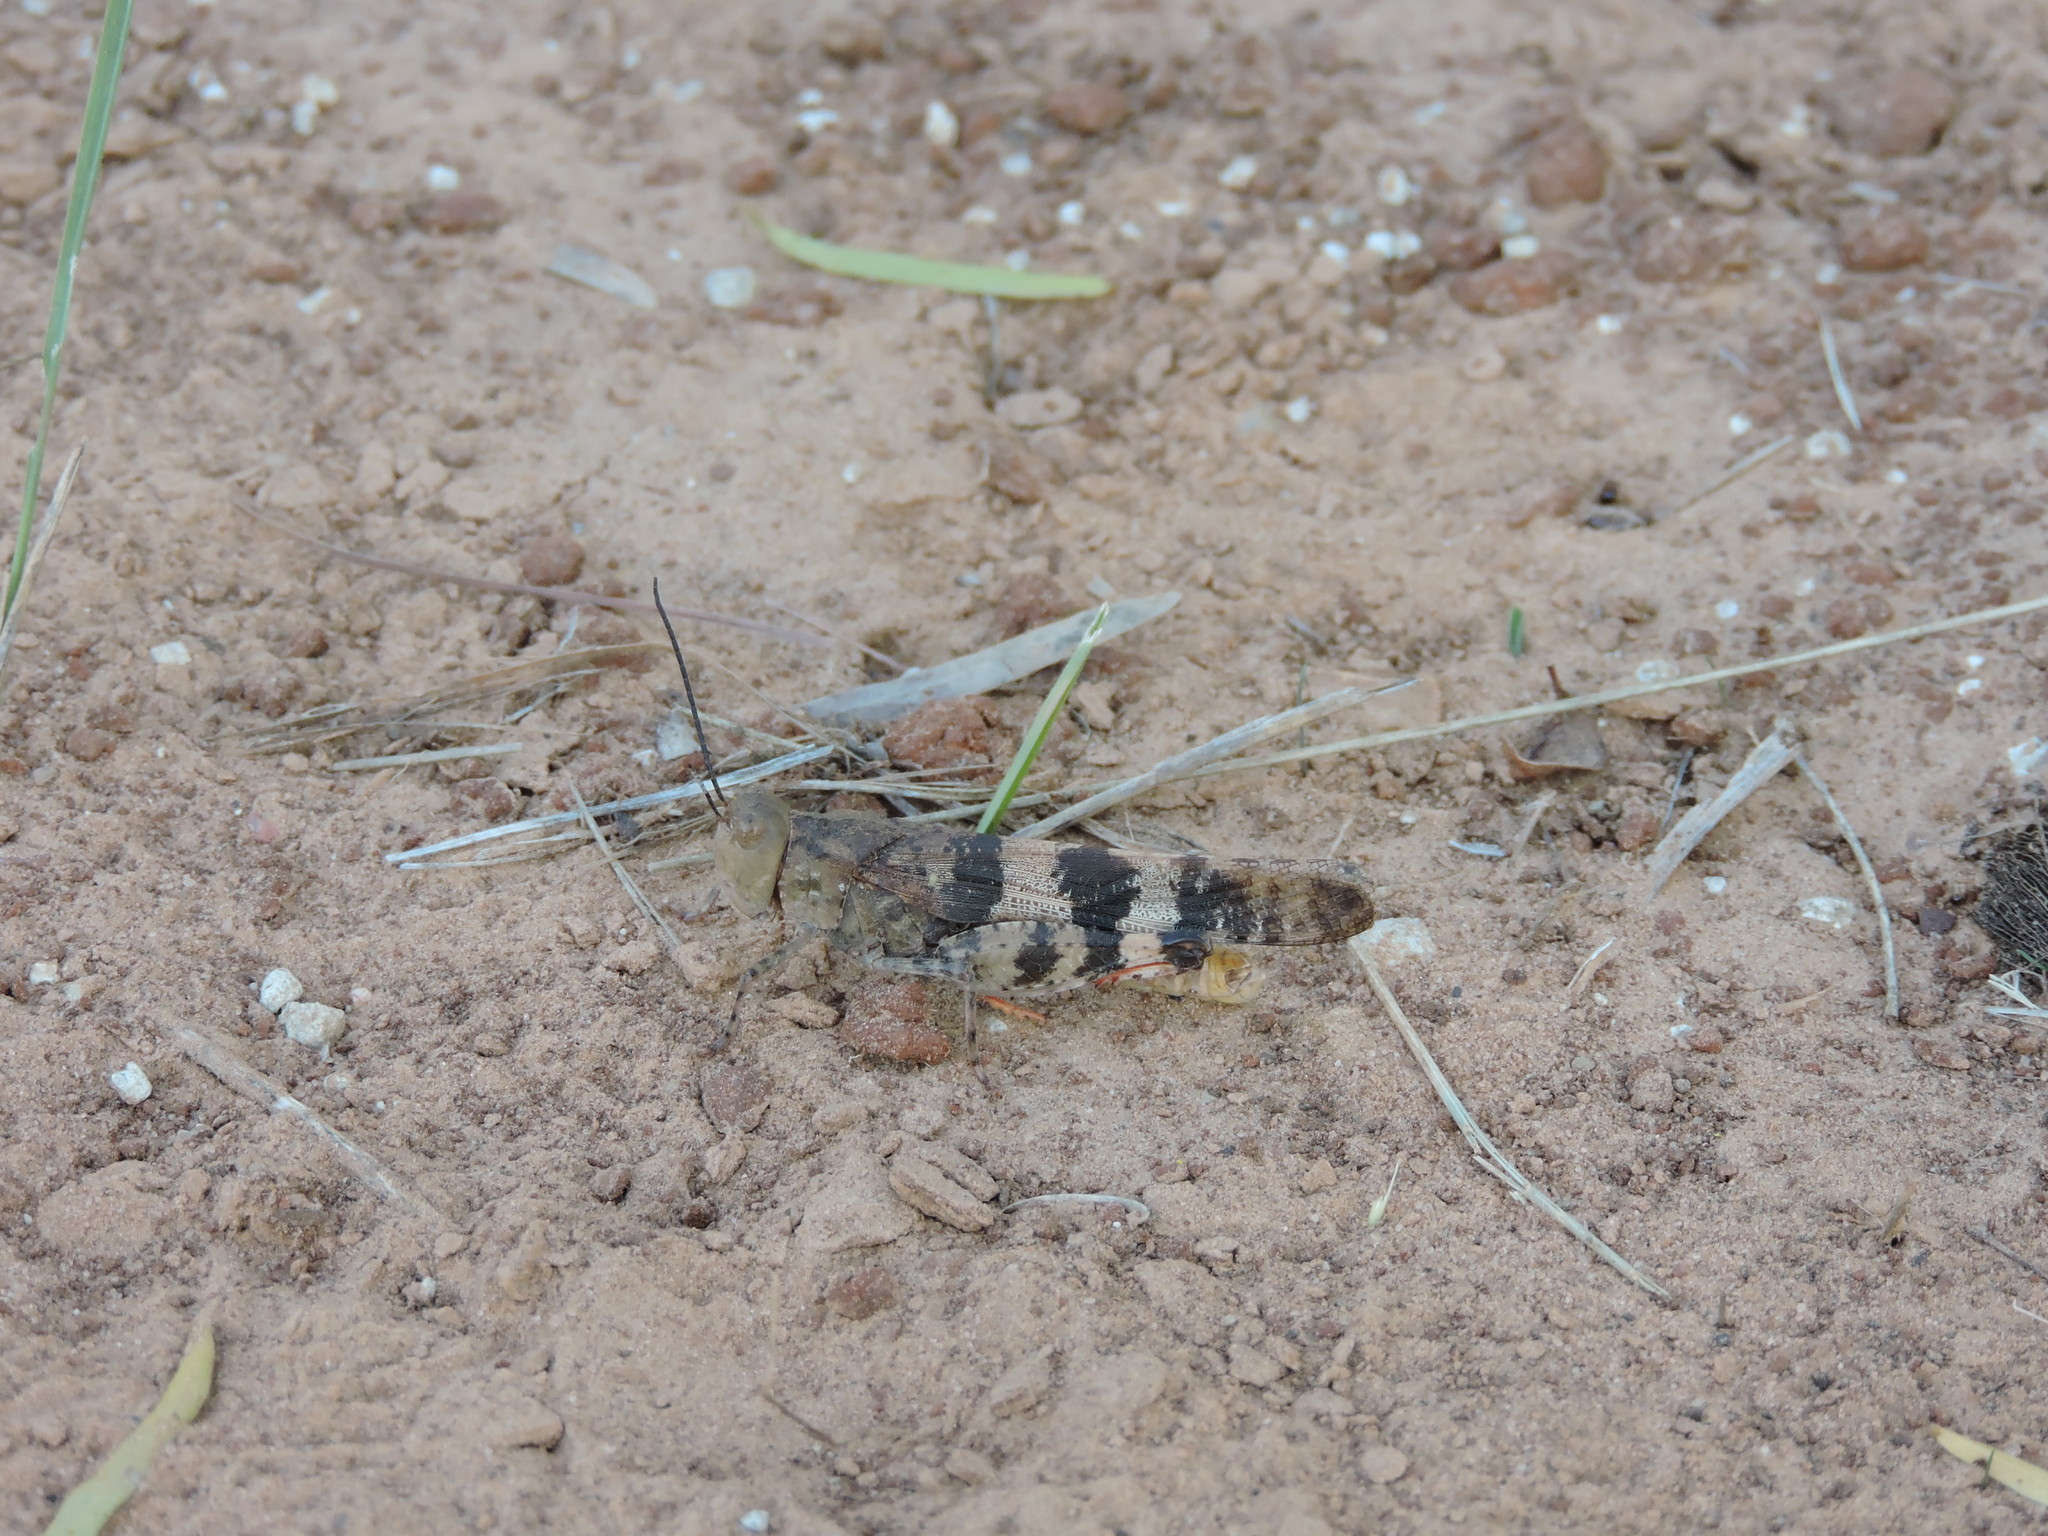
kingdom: Animalia
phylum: Arthropoda
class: Insecta
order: Orthoptera
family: Acrididae
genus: Spharagemon
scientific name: Spharagemon equale
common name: Orange-legged grasshopper
